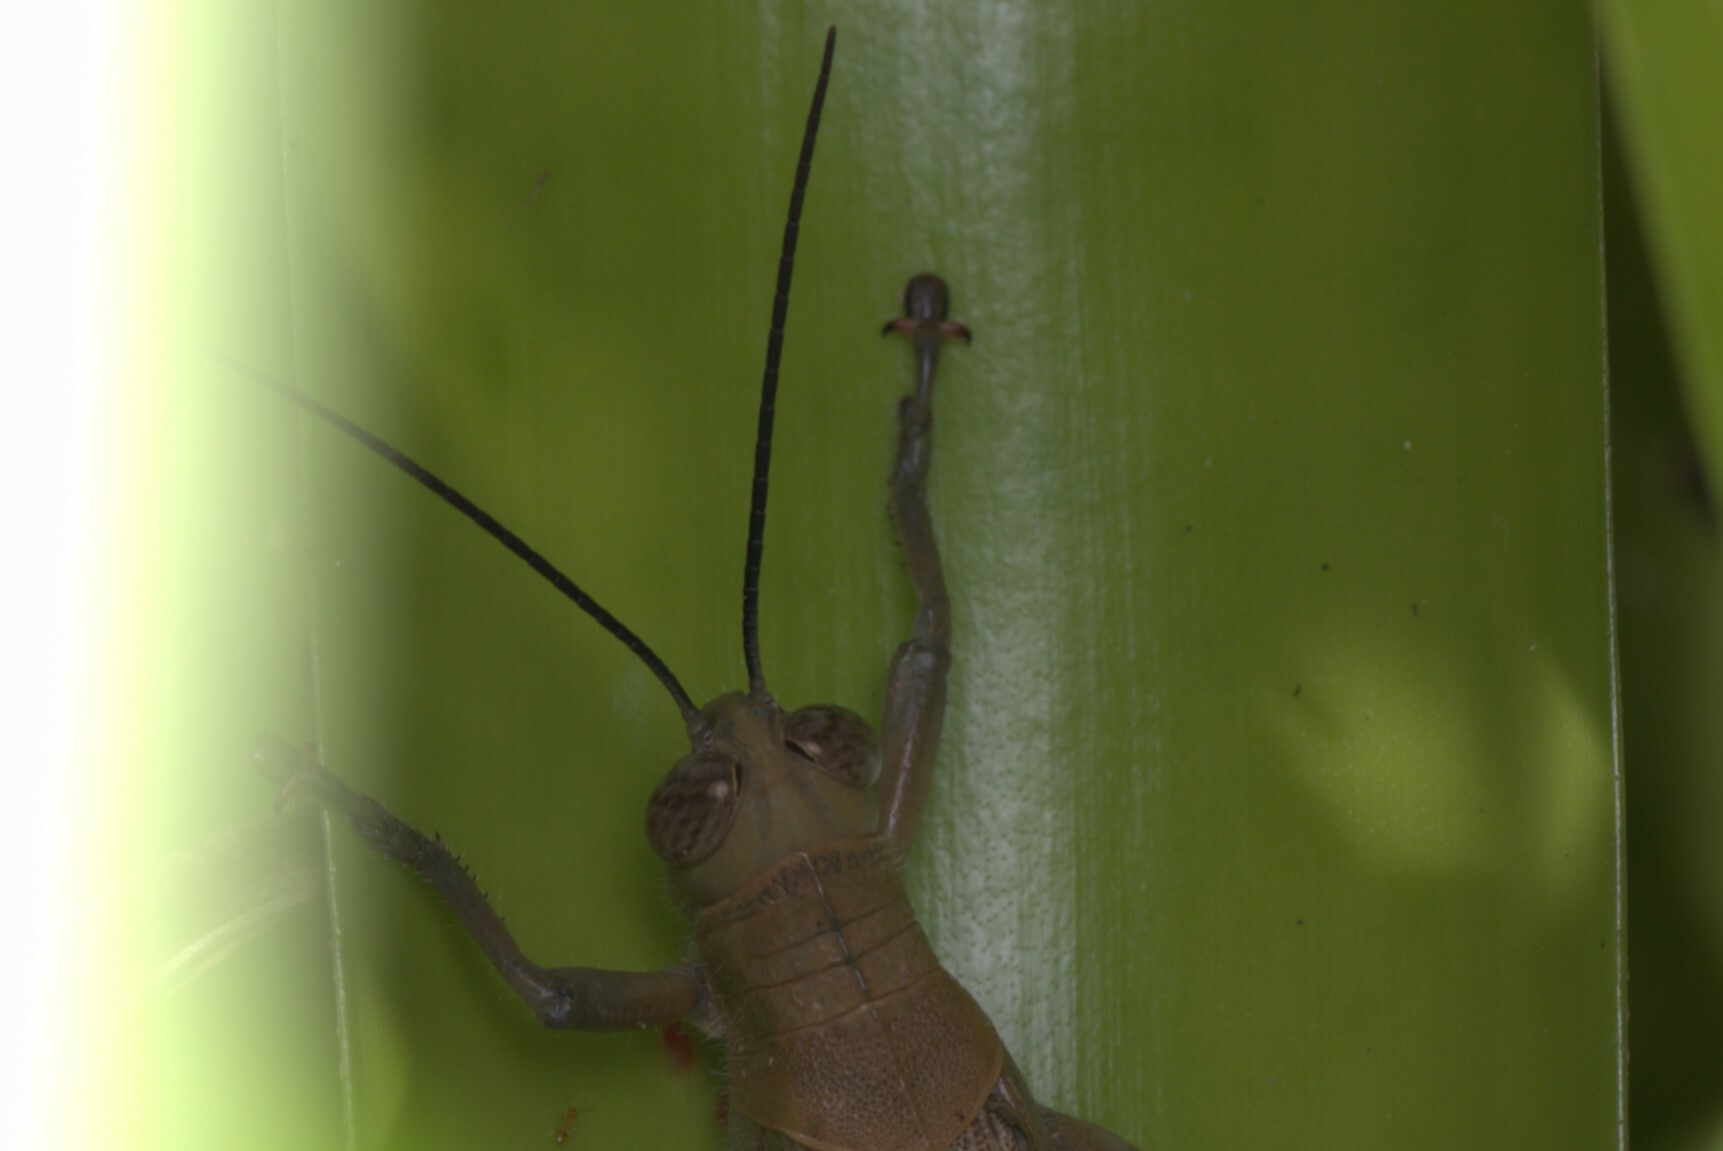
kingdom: Animalia
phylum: Arthropoda
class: Insecta
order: Orthoptera
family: Acrididae
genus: Valanga
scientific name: Valanga irregularis
